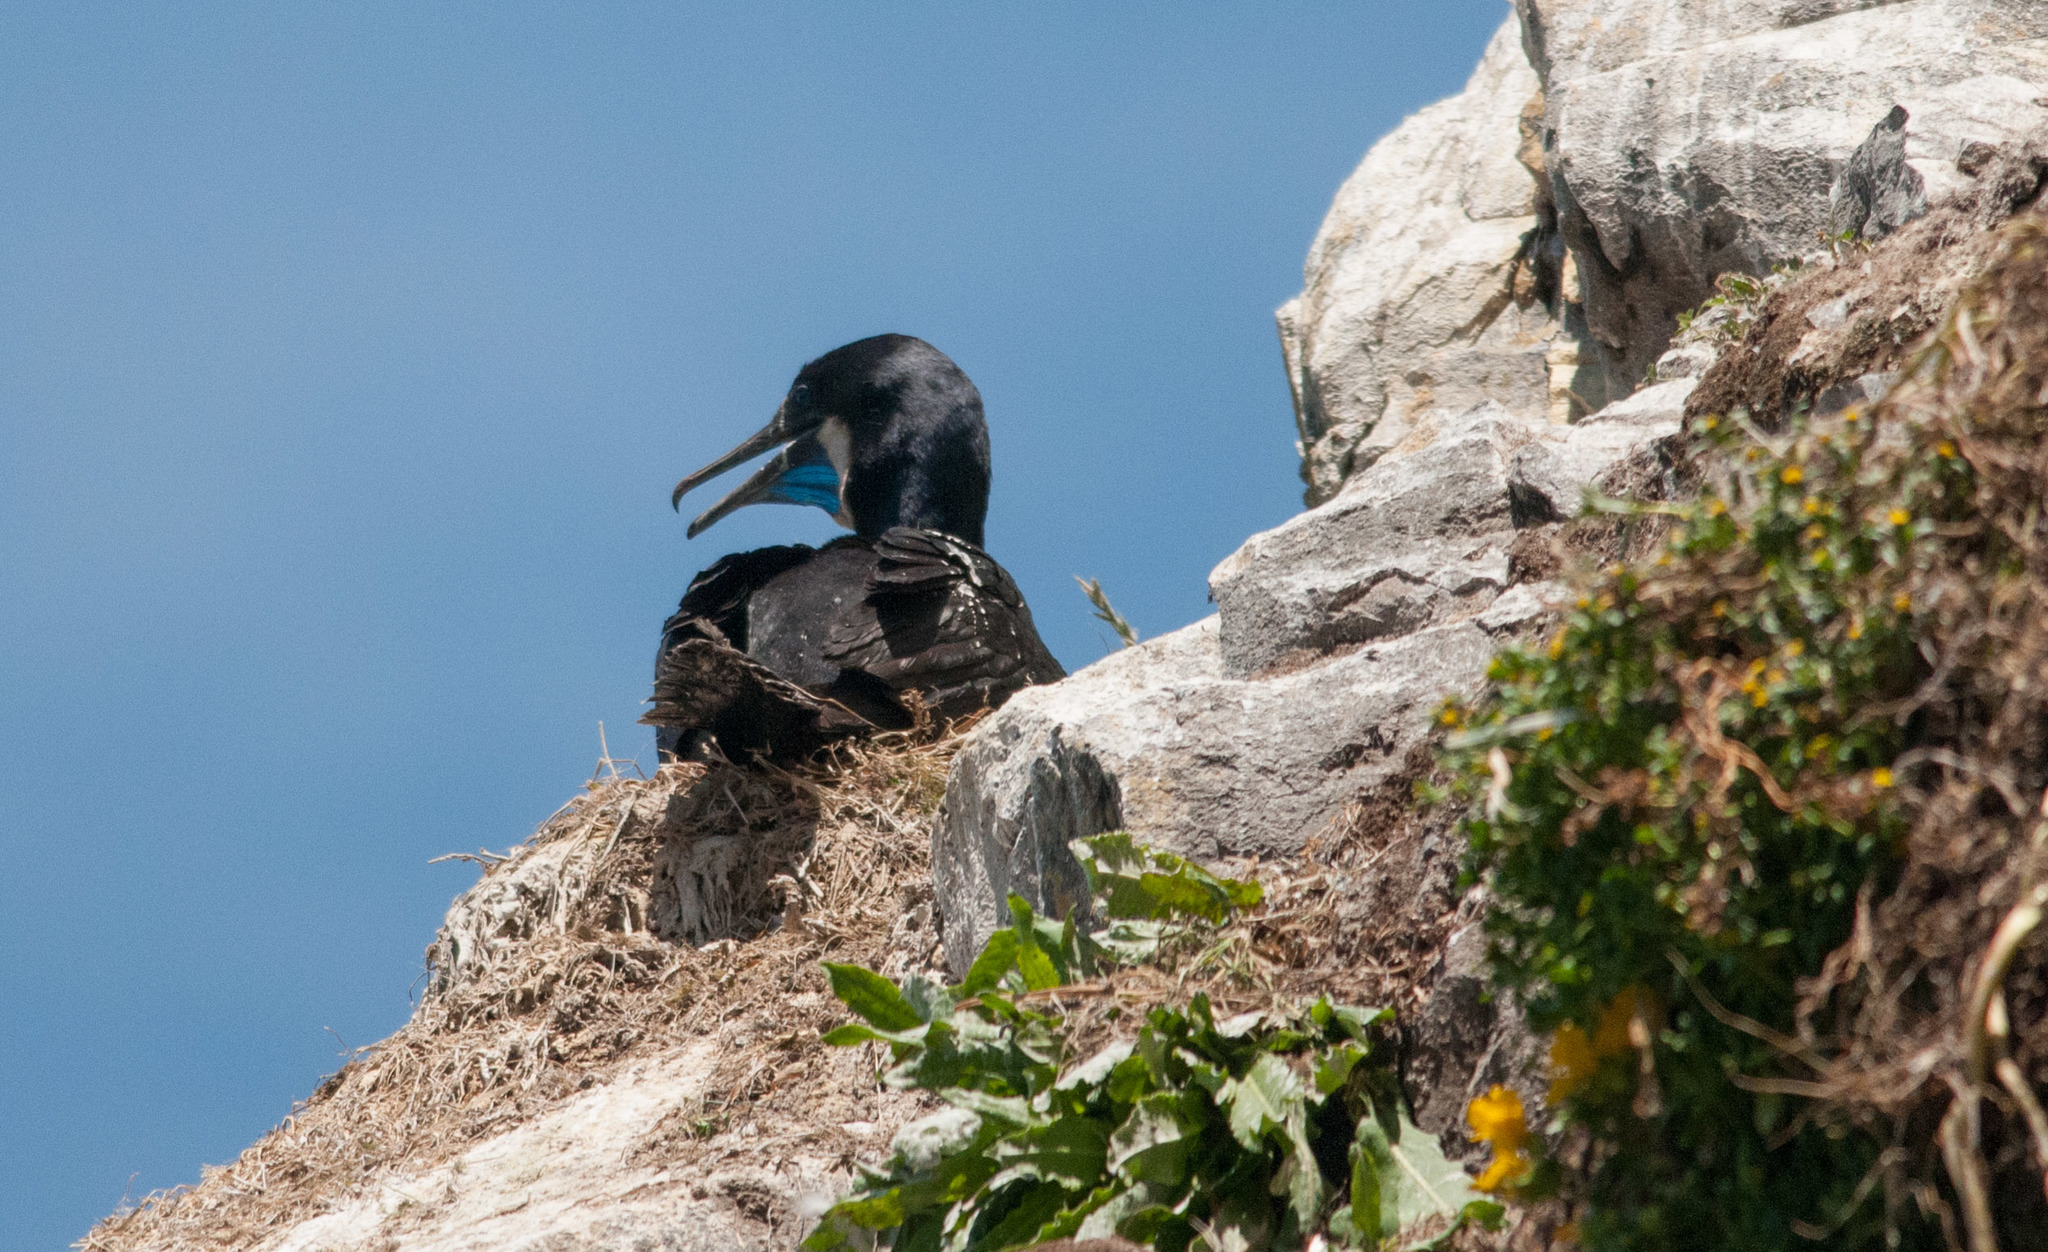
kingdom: Animalia
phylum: Chordata
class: Aves
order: Suliformes
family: Phalacrocoracidae
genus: Urile
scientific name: Urile penicillatus
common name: Brandt's cormorant
